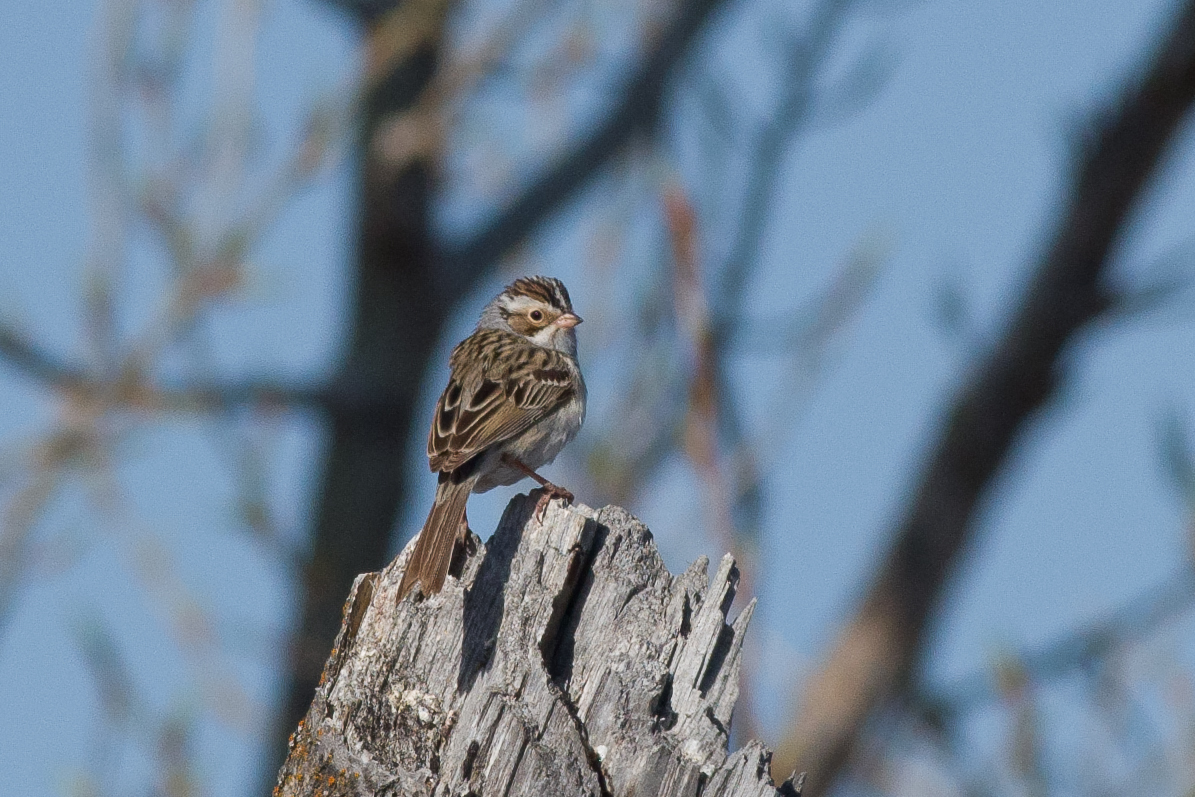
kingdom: Animalia
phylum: Chordata
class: Aves
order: Passeriformes
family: Passerellidae
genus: Spizella
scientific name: Spizella pallida
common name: Clay-colored sparrow
